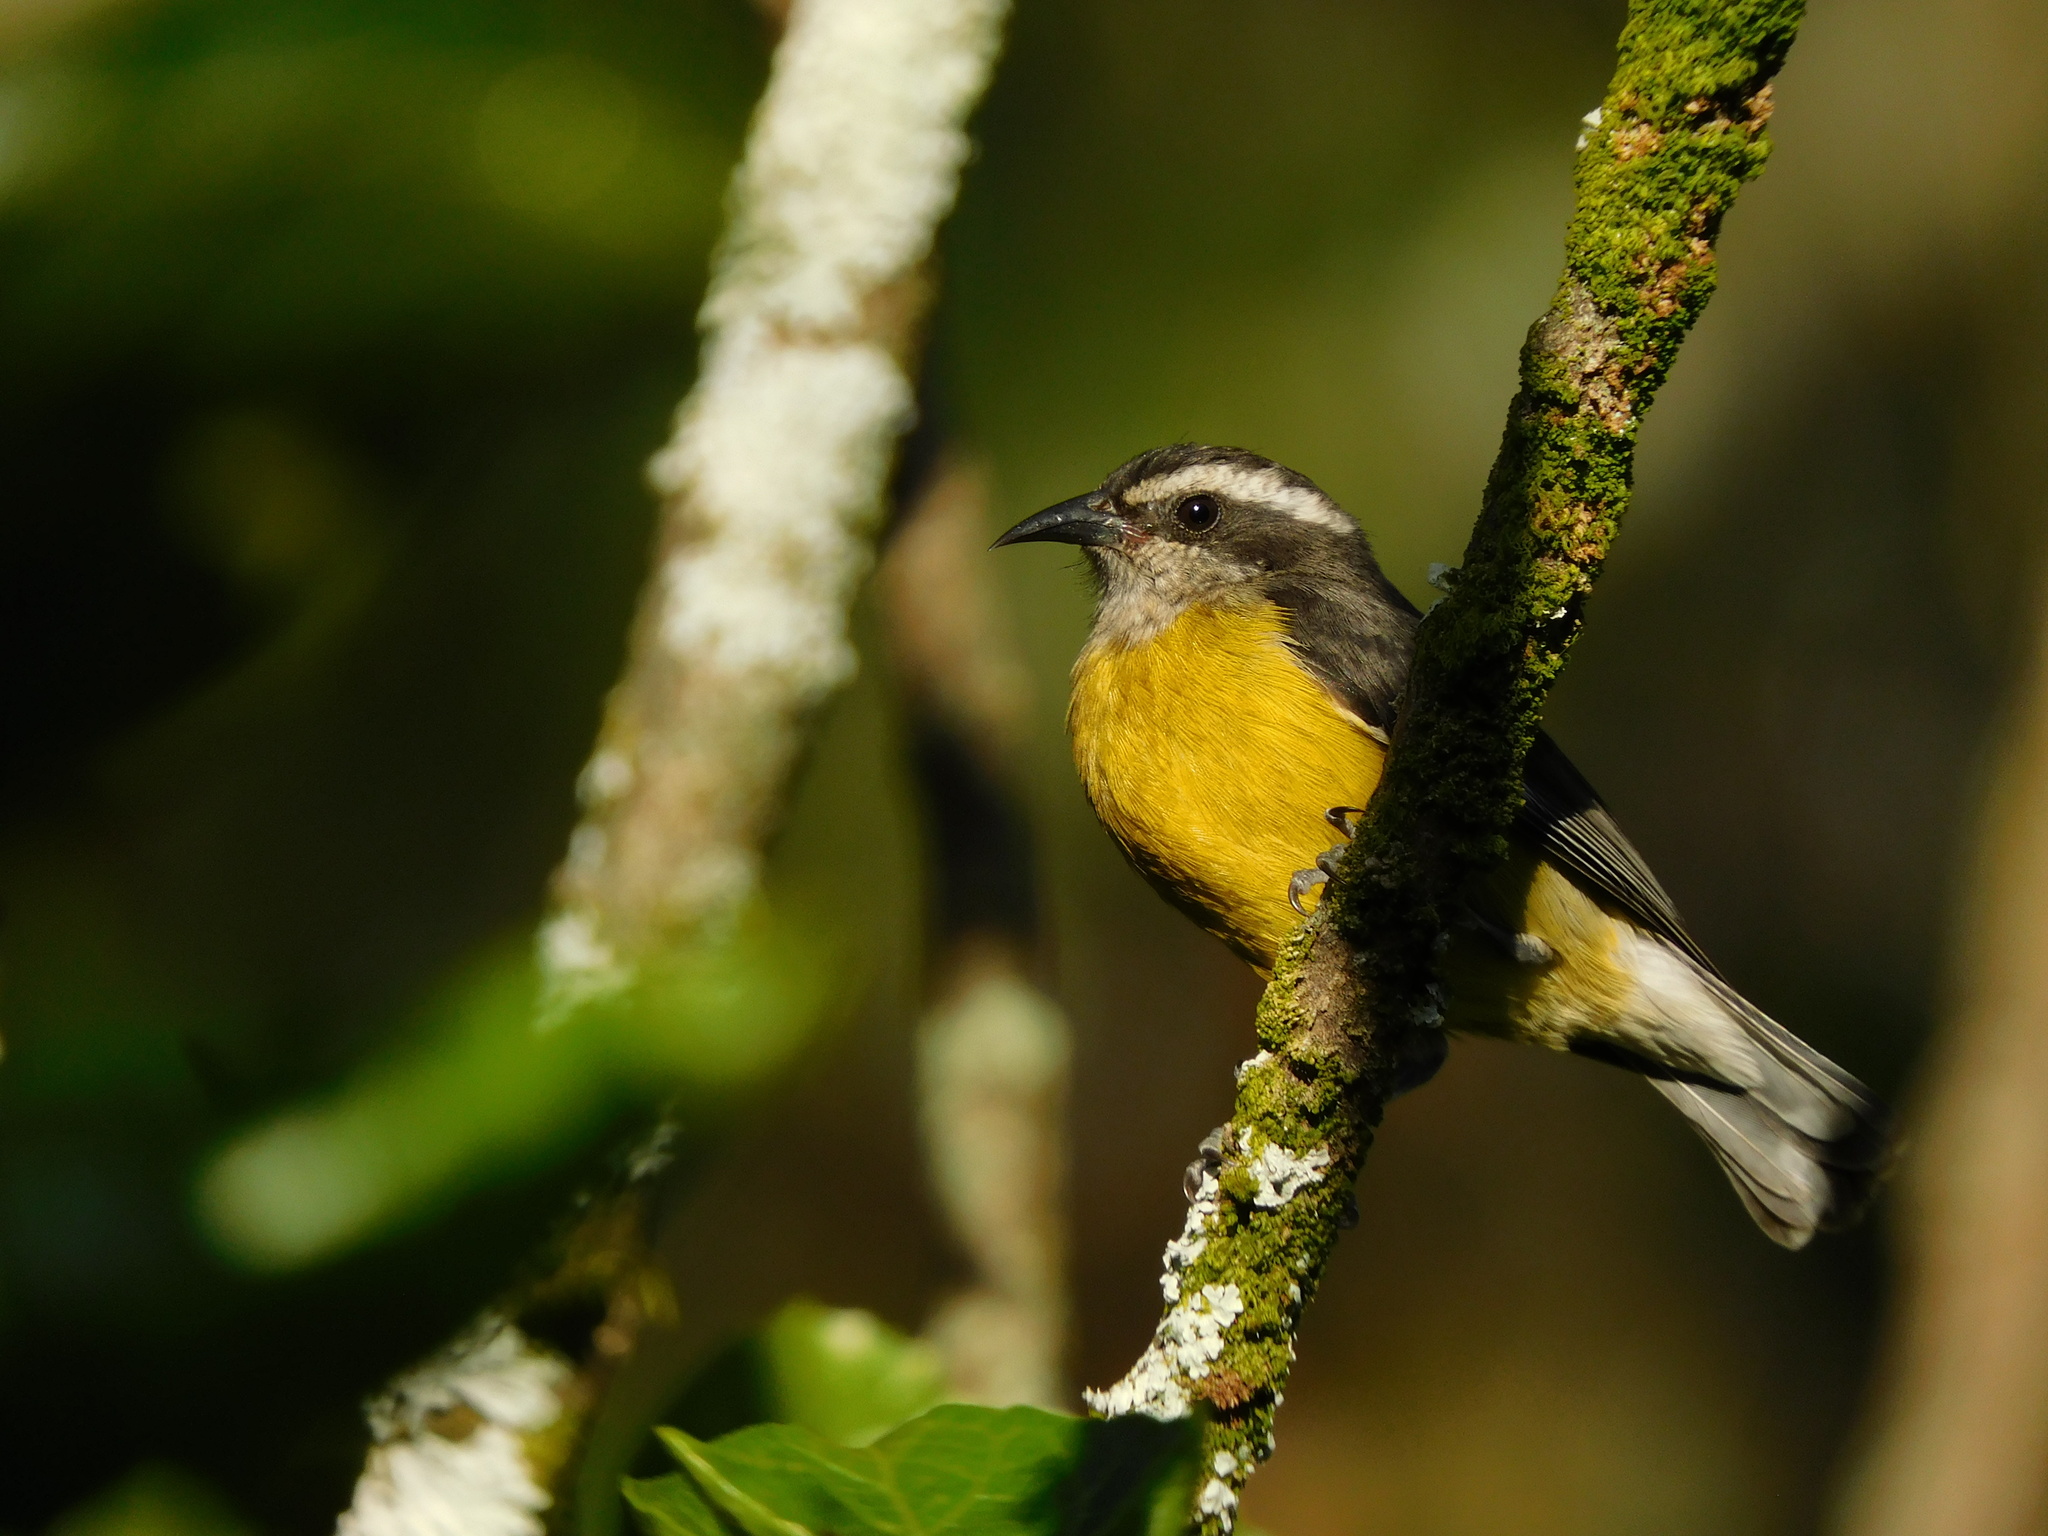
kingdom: Animalia
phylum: Chordata
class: Aves
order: Passeriformes
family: Thraupidae
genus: Coereba
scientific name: Coereba flaveola
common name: Bananaquit
